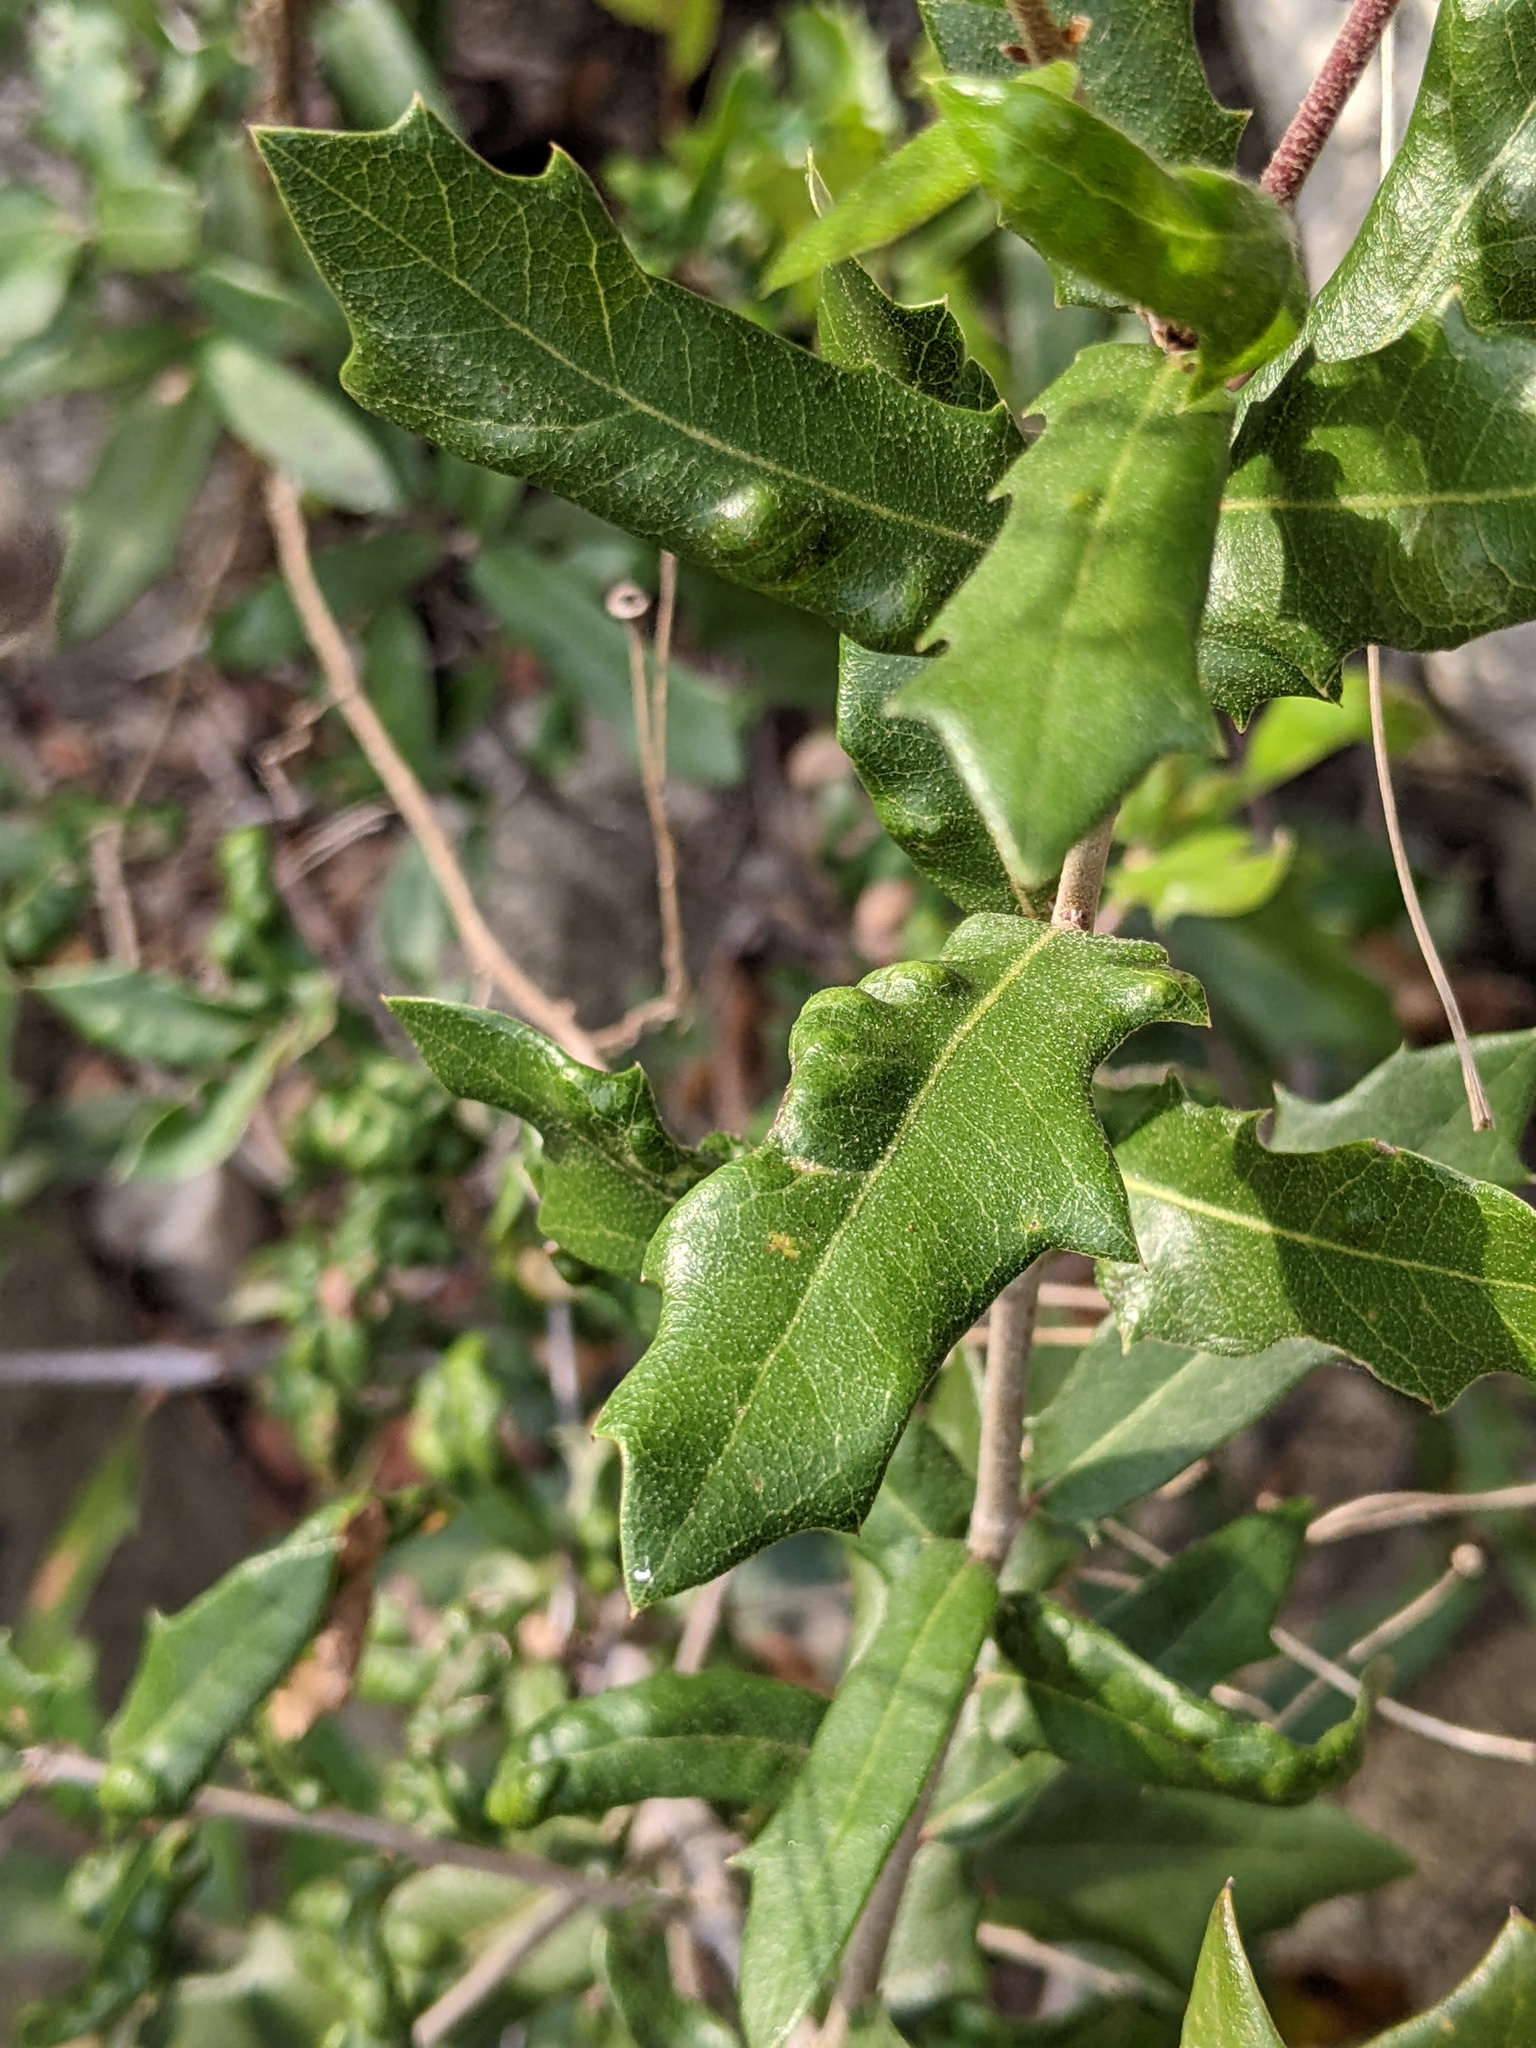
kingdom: Animalia
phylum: Arthropoda
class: Arachnida
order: Trombidiformes
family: Eriophyidae
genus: Aceria
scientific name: Aceria quercina
